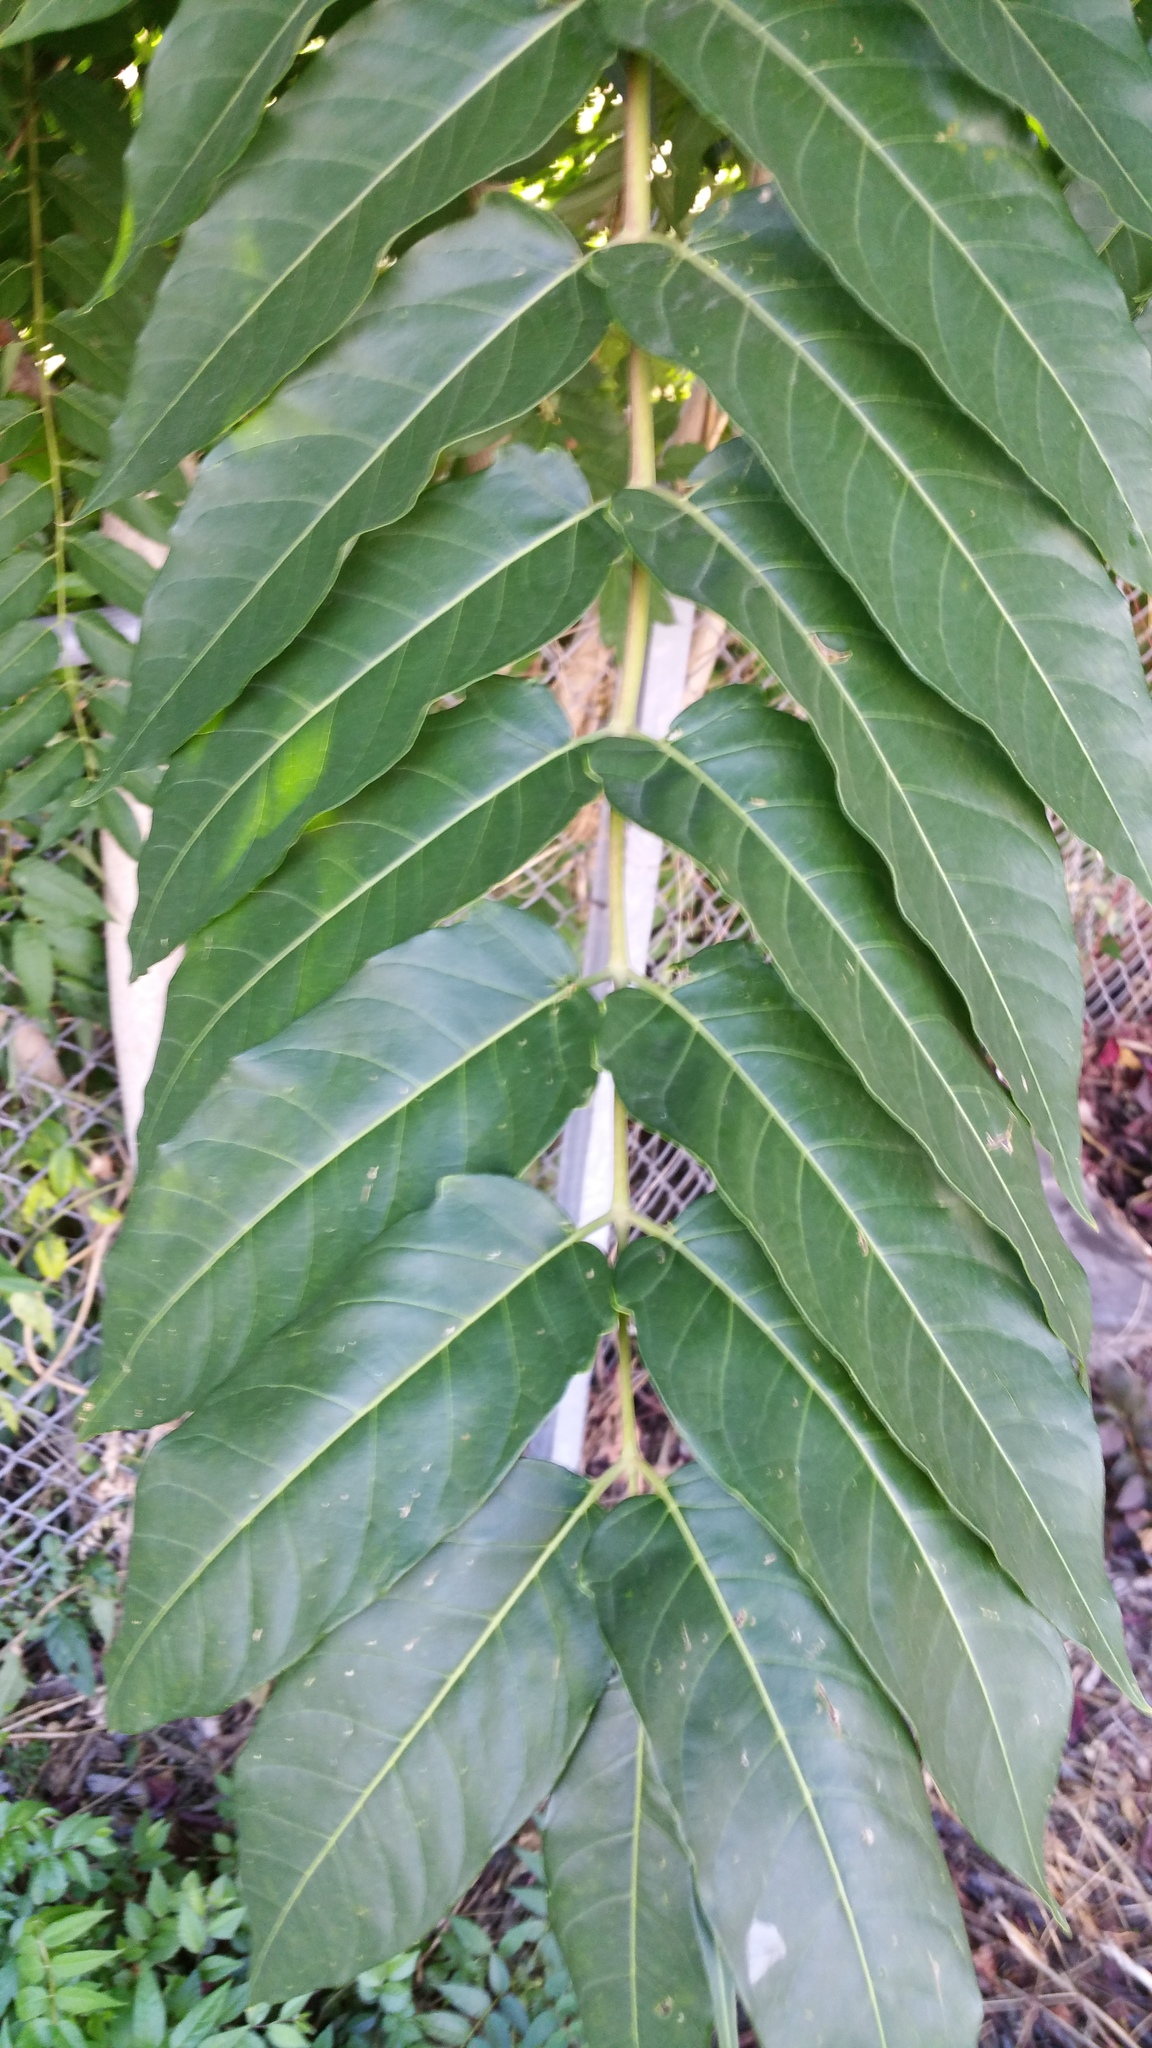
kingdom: Plantae
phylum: Tracheophyta
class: Magnoliopsida
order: Sapindales
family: Simaroubaceae
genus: Ailanthus
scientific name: Ailanthus altissima
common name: Tree-of-heaven
